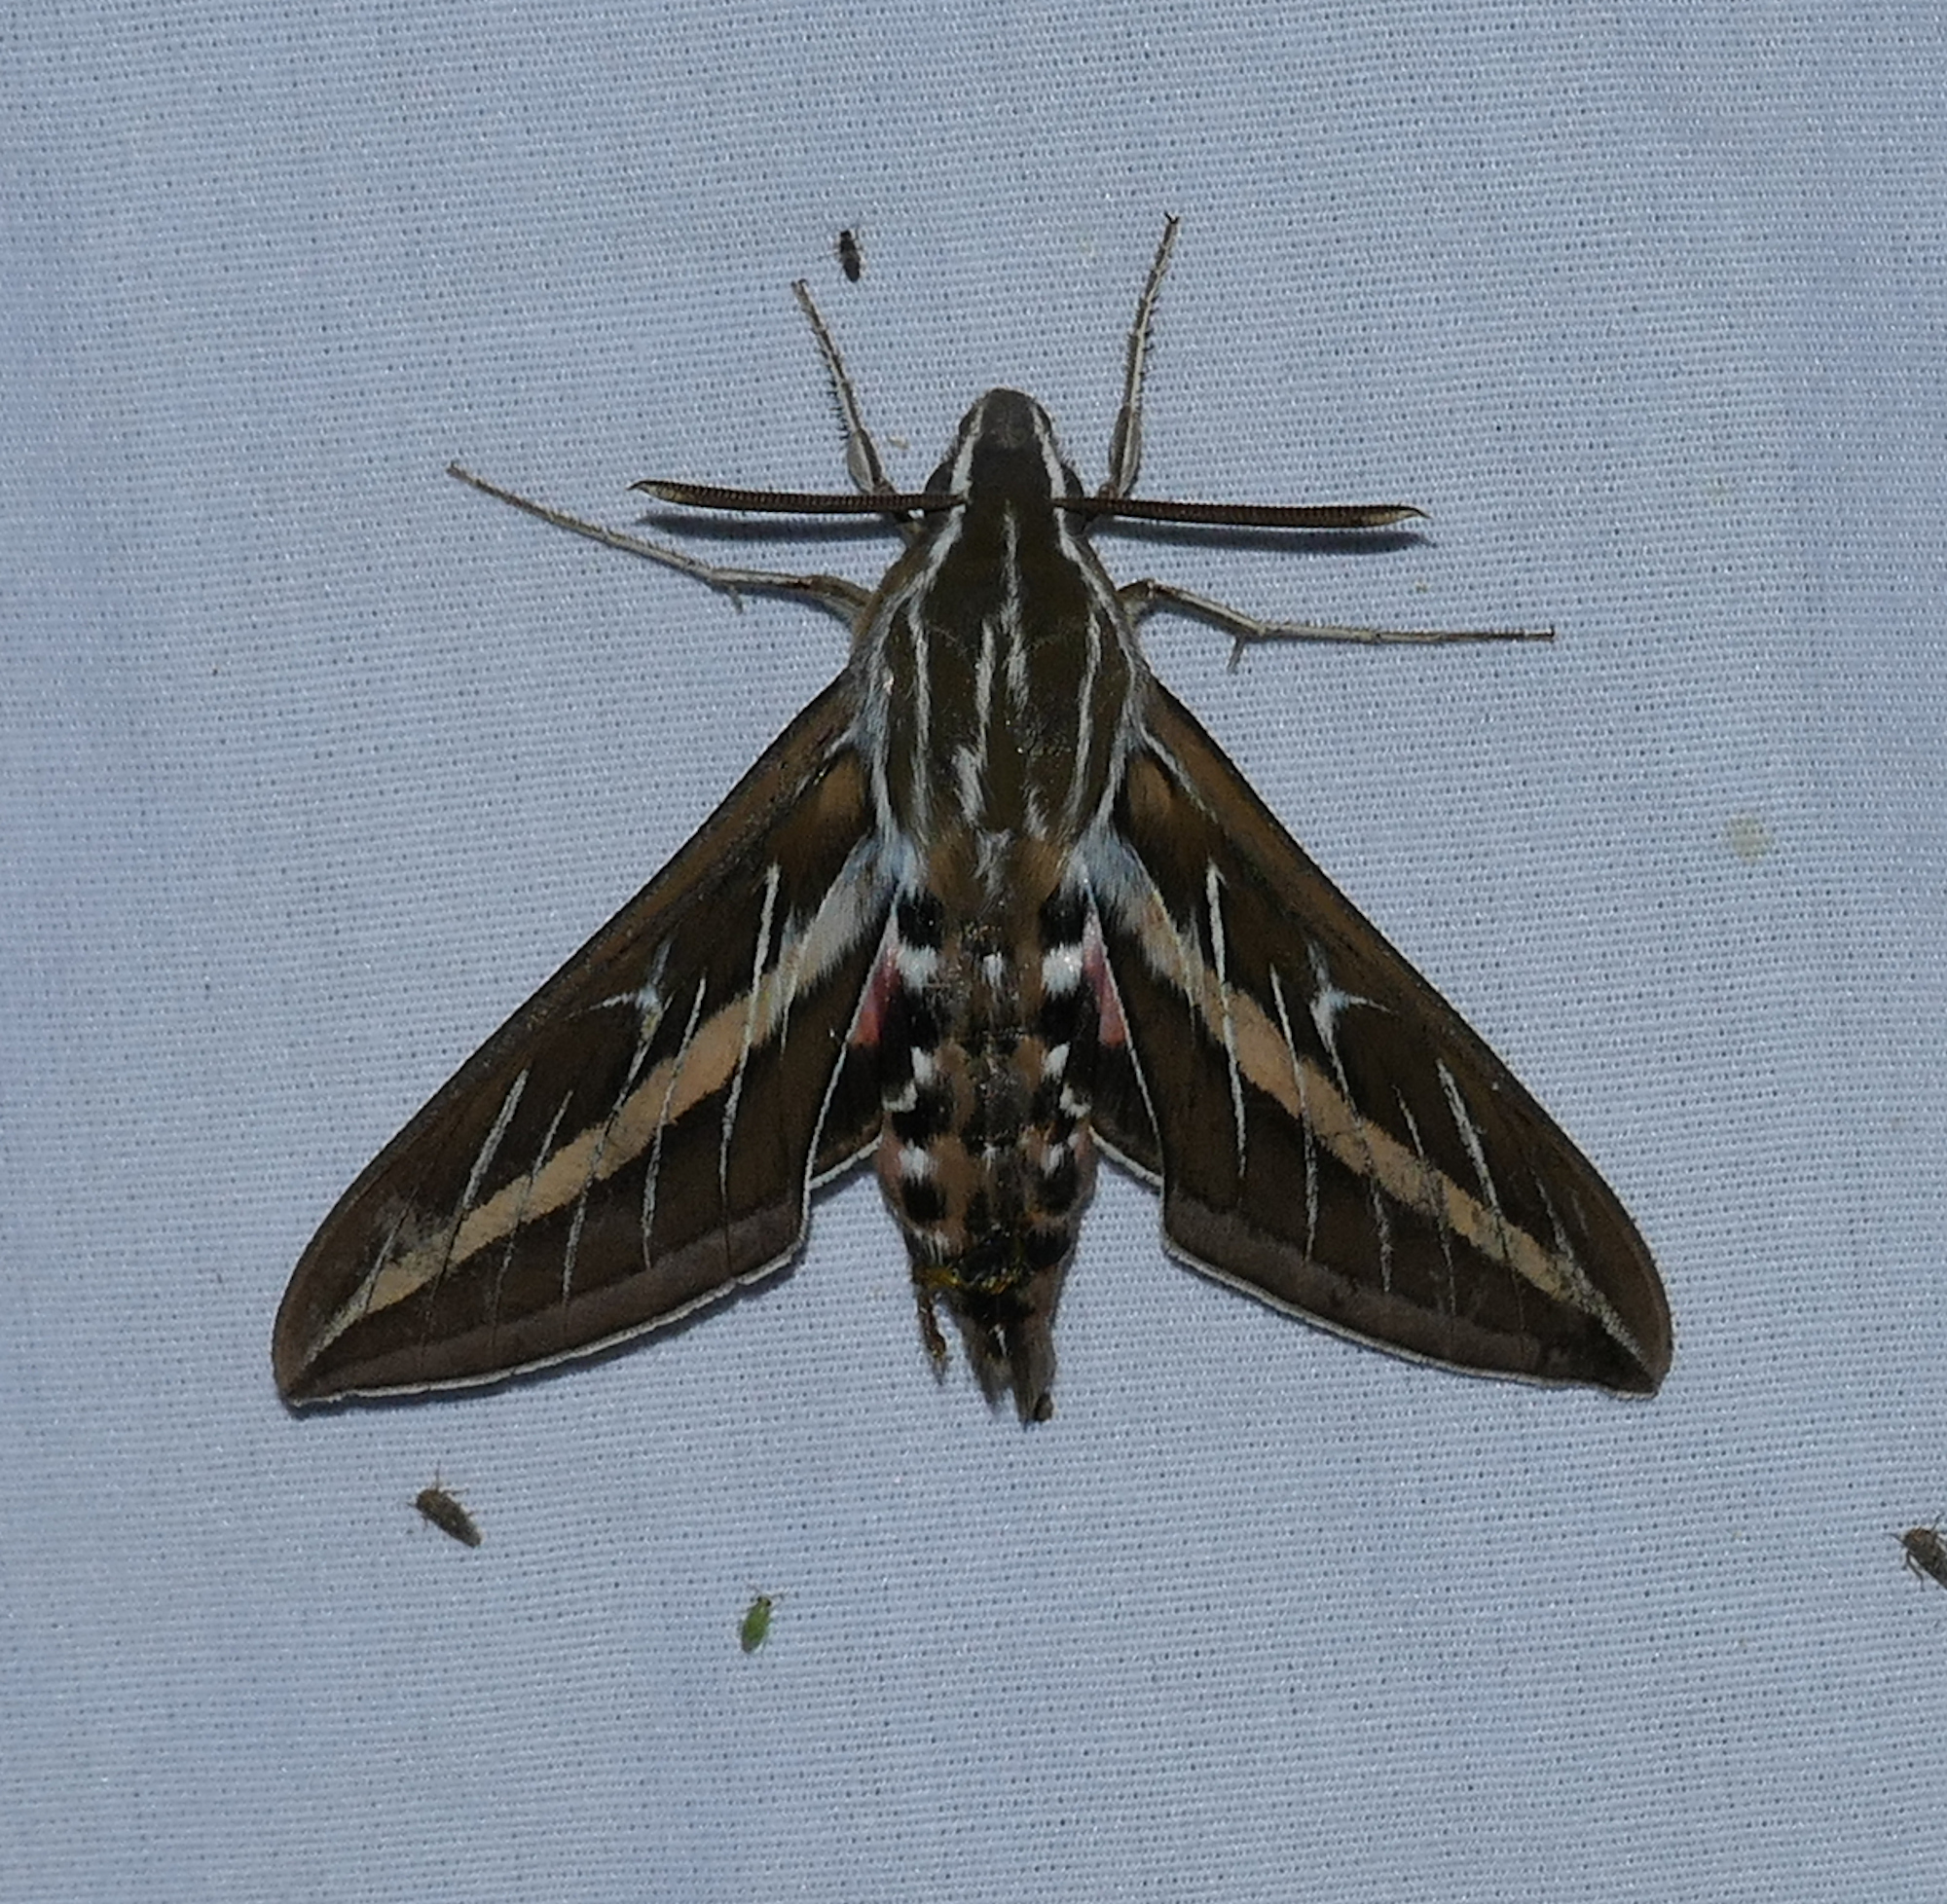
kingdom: Animalia
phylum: Arthropoda
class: Insecta
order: Lepidoptera
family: Sphingidae
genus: Hyles
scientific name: Hyles lineata
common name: White-lined sphinx
